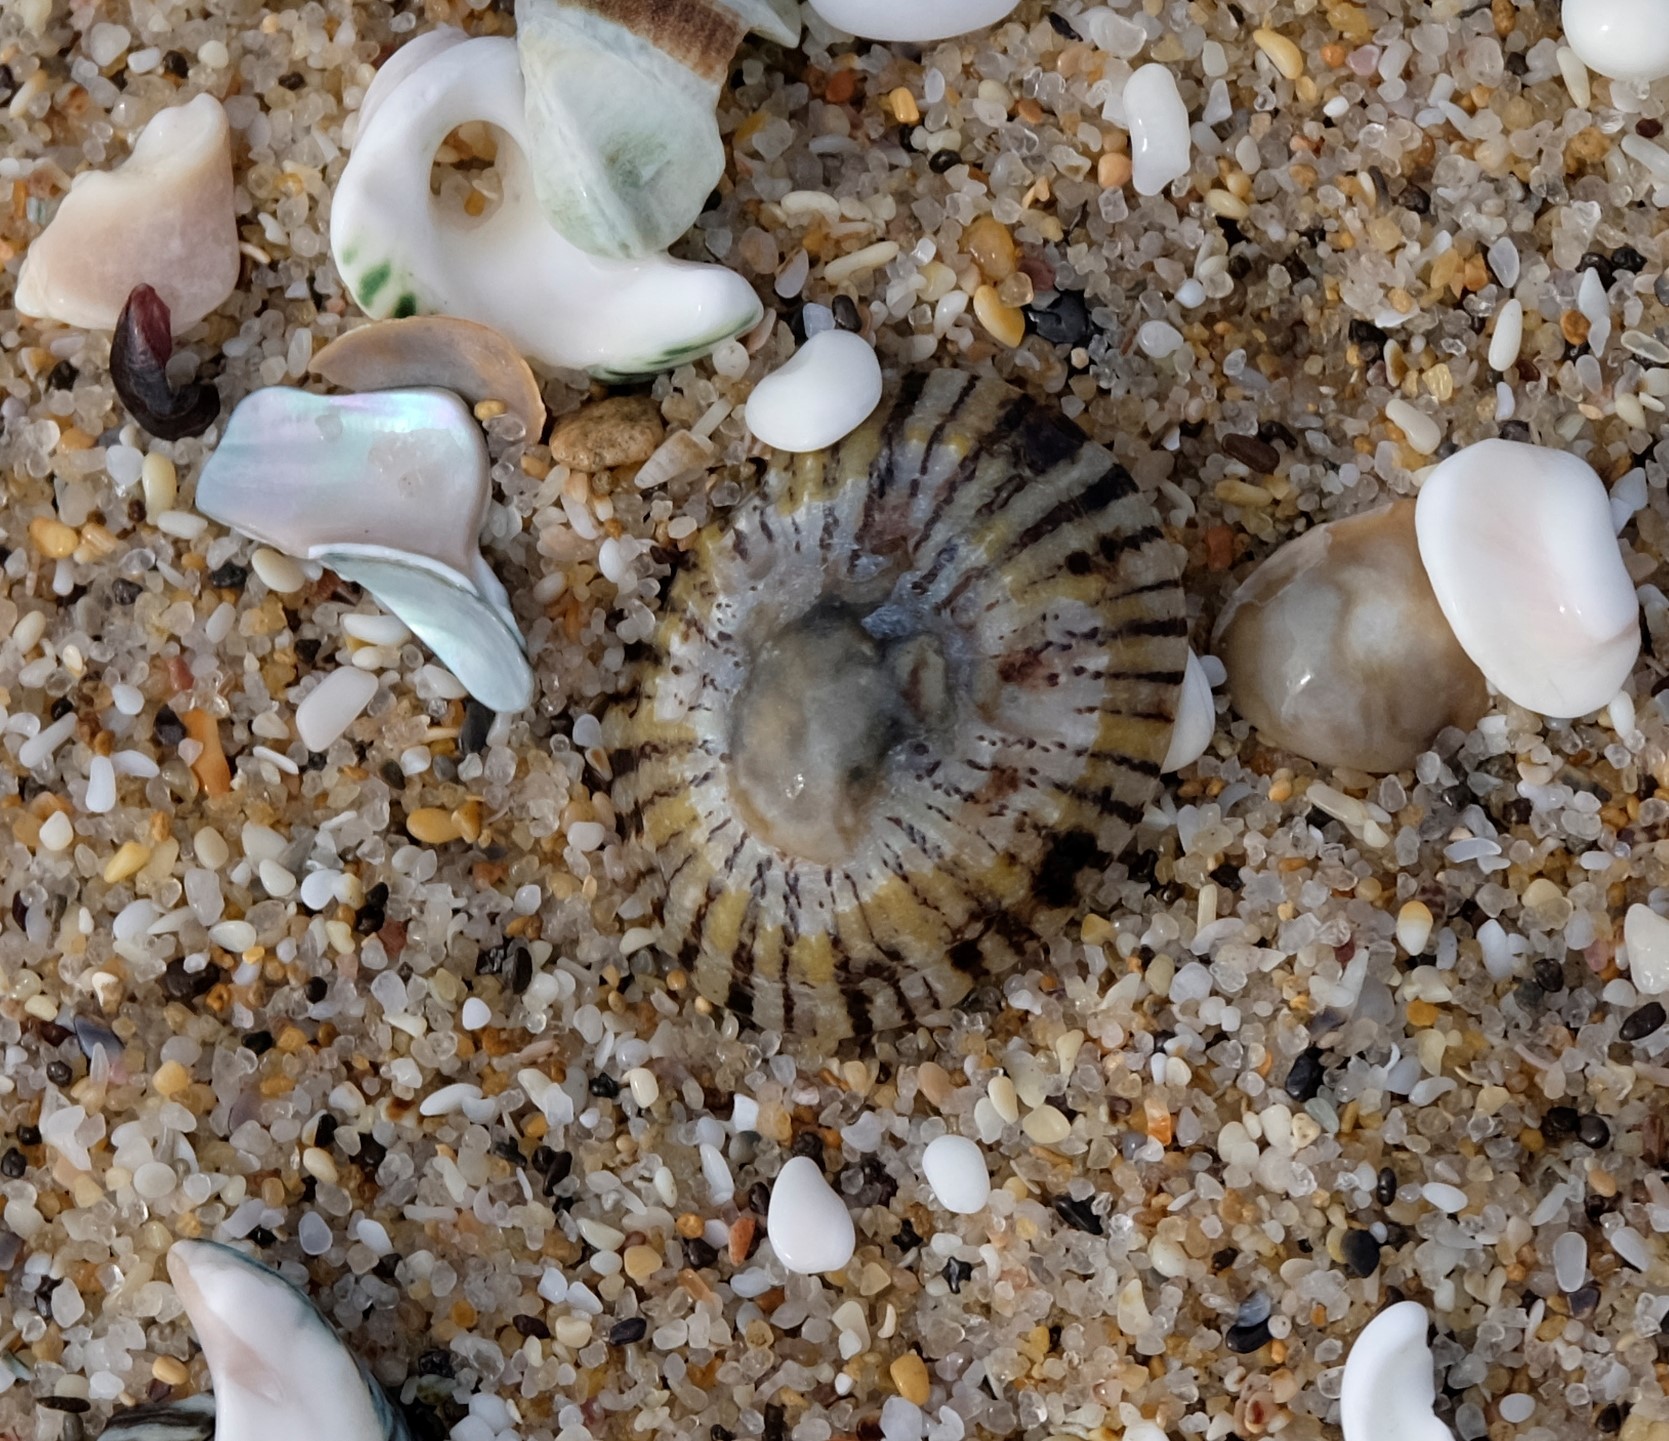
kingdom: Animalia
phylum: Mollusca
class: Gastropoda
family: Nacellidae
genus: Cellana
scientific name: Cellana tramoserica
